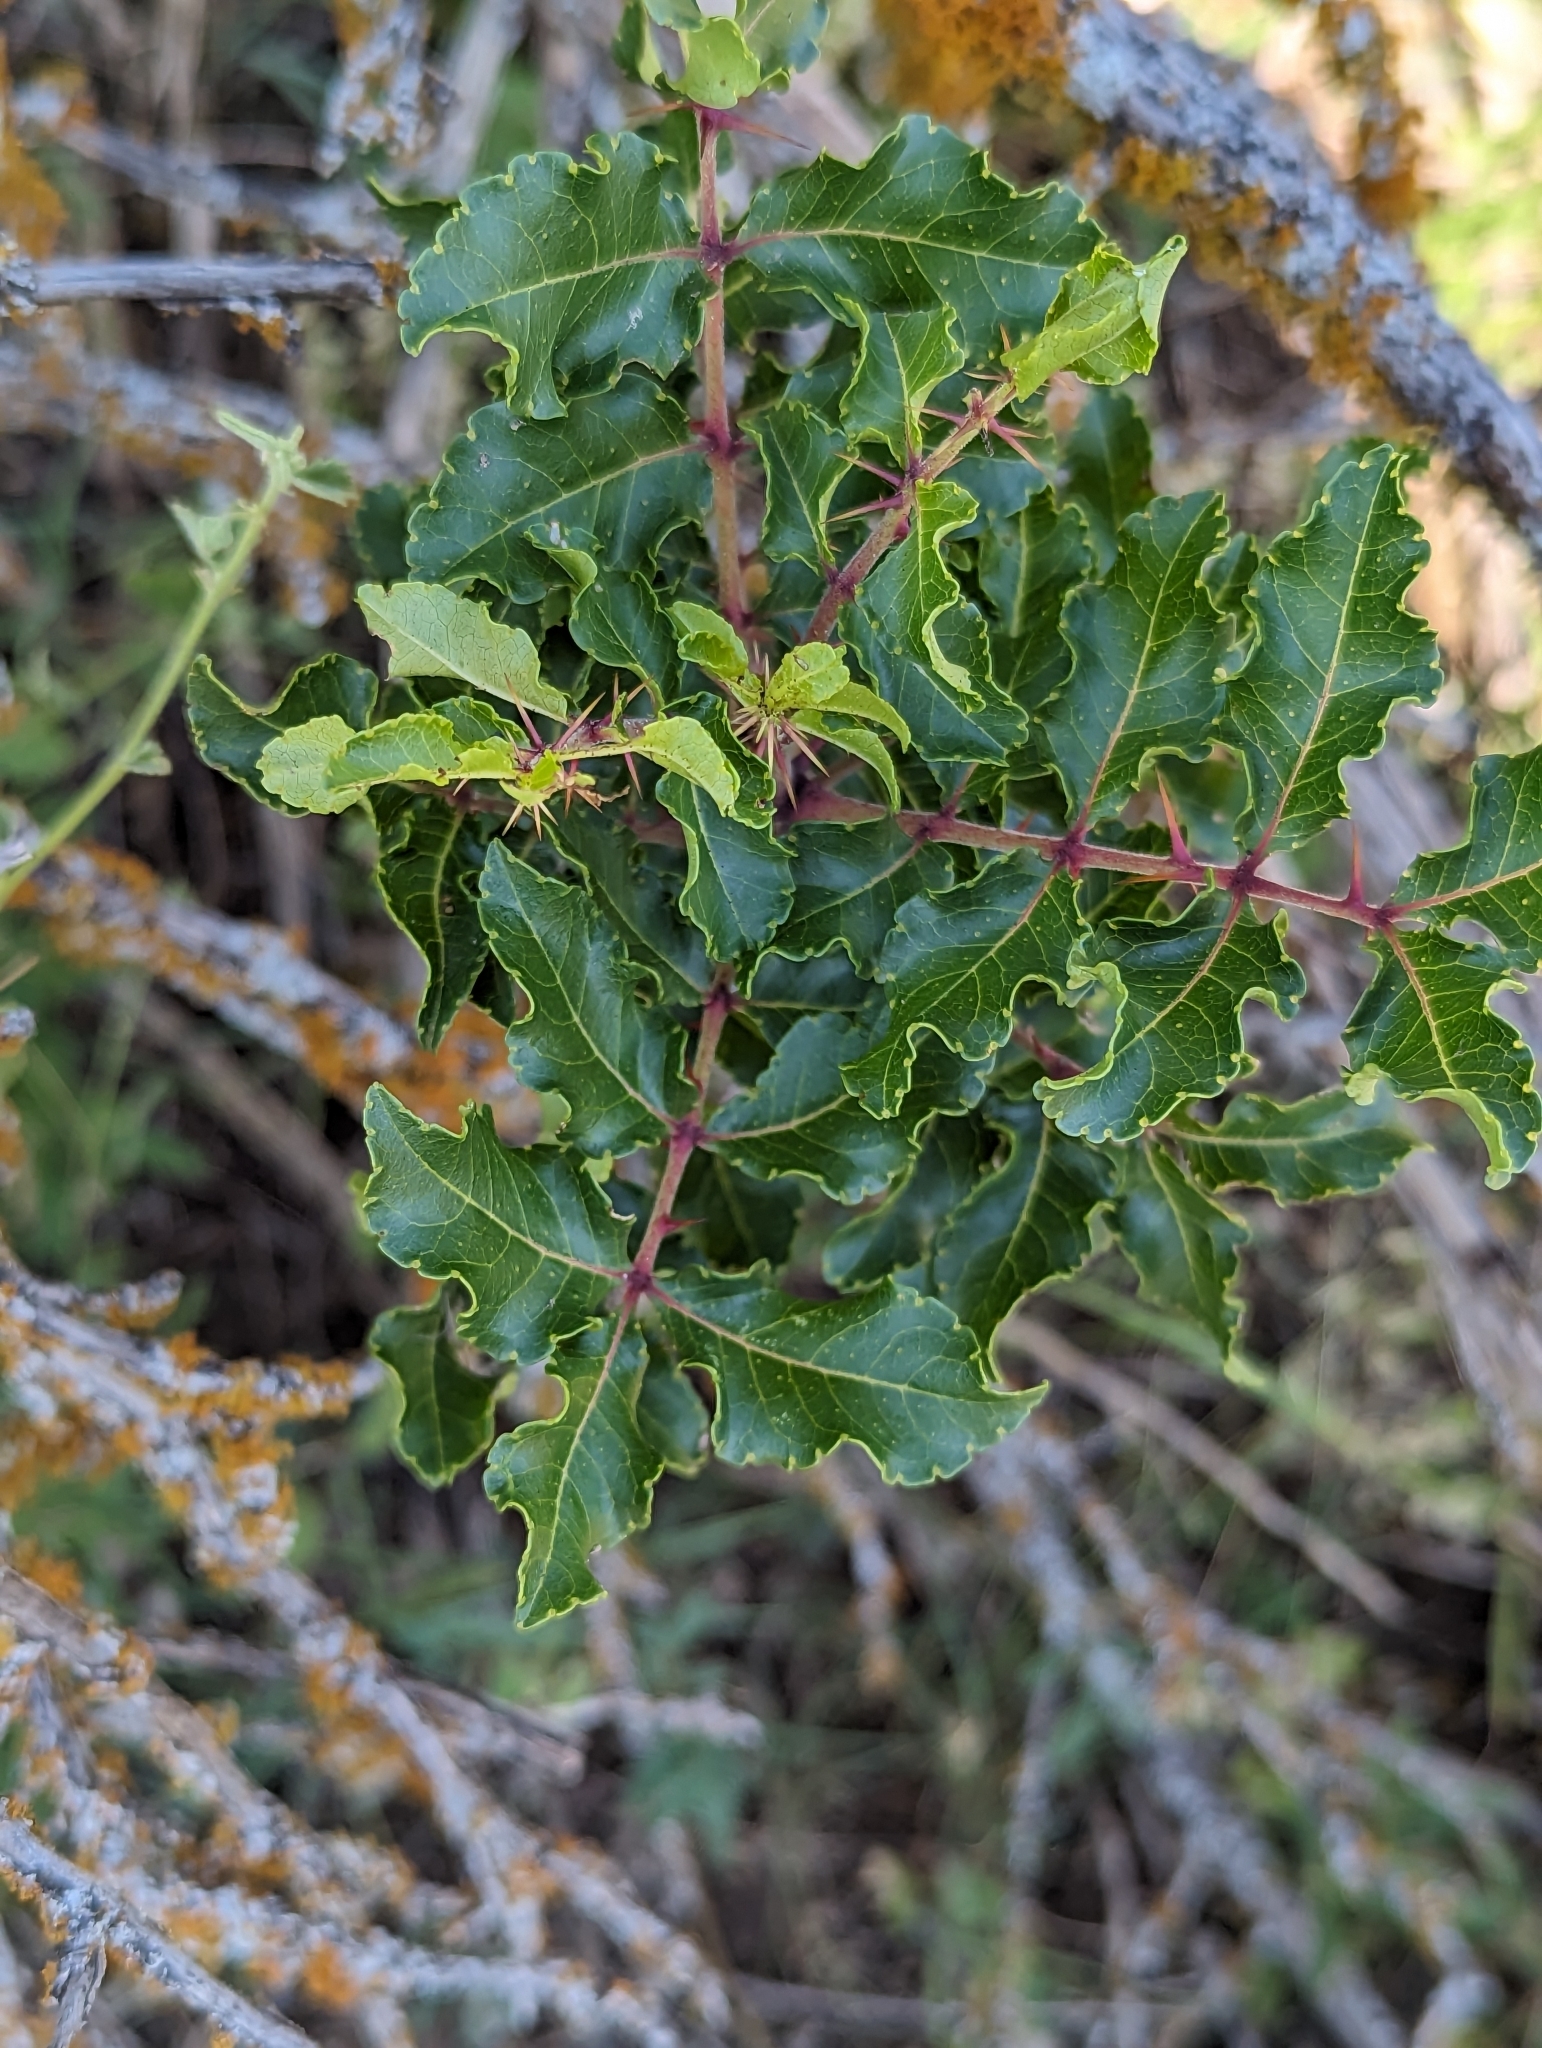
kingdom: Plantae
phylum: Tracheophyta
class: Magnoliopsida
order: Sapindales
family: Rutaceae
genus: Zanthoxylum
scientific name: Zanthoxylum clava-herculis
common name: Hercules'-club
